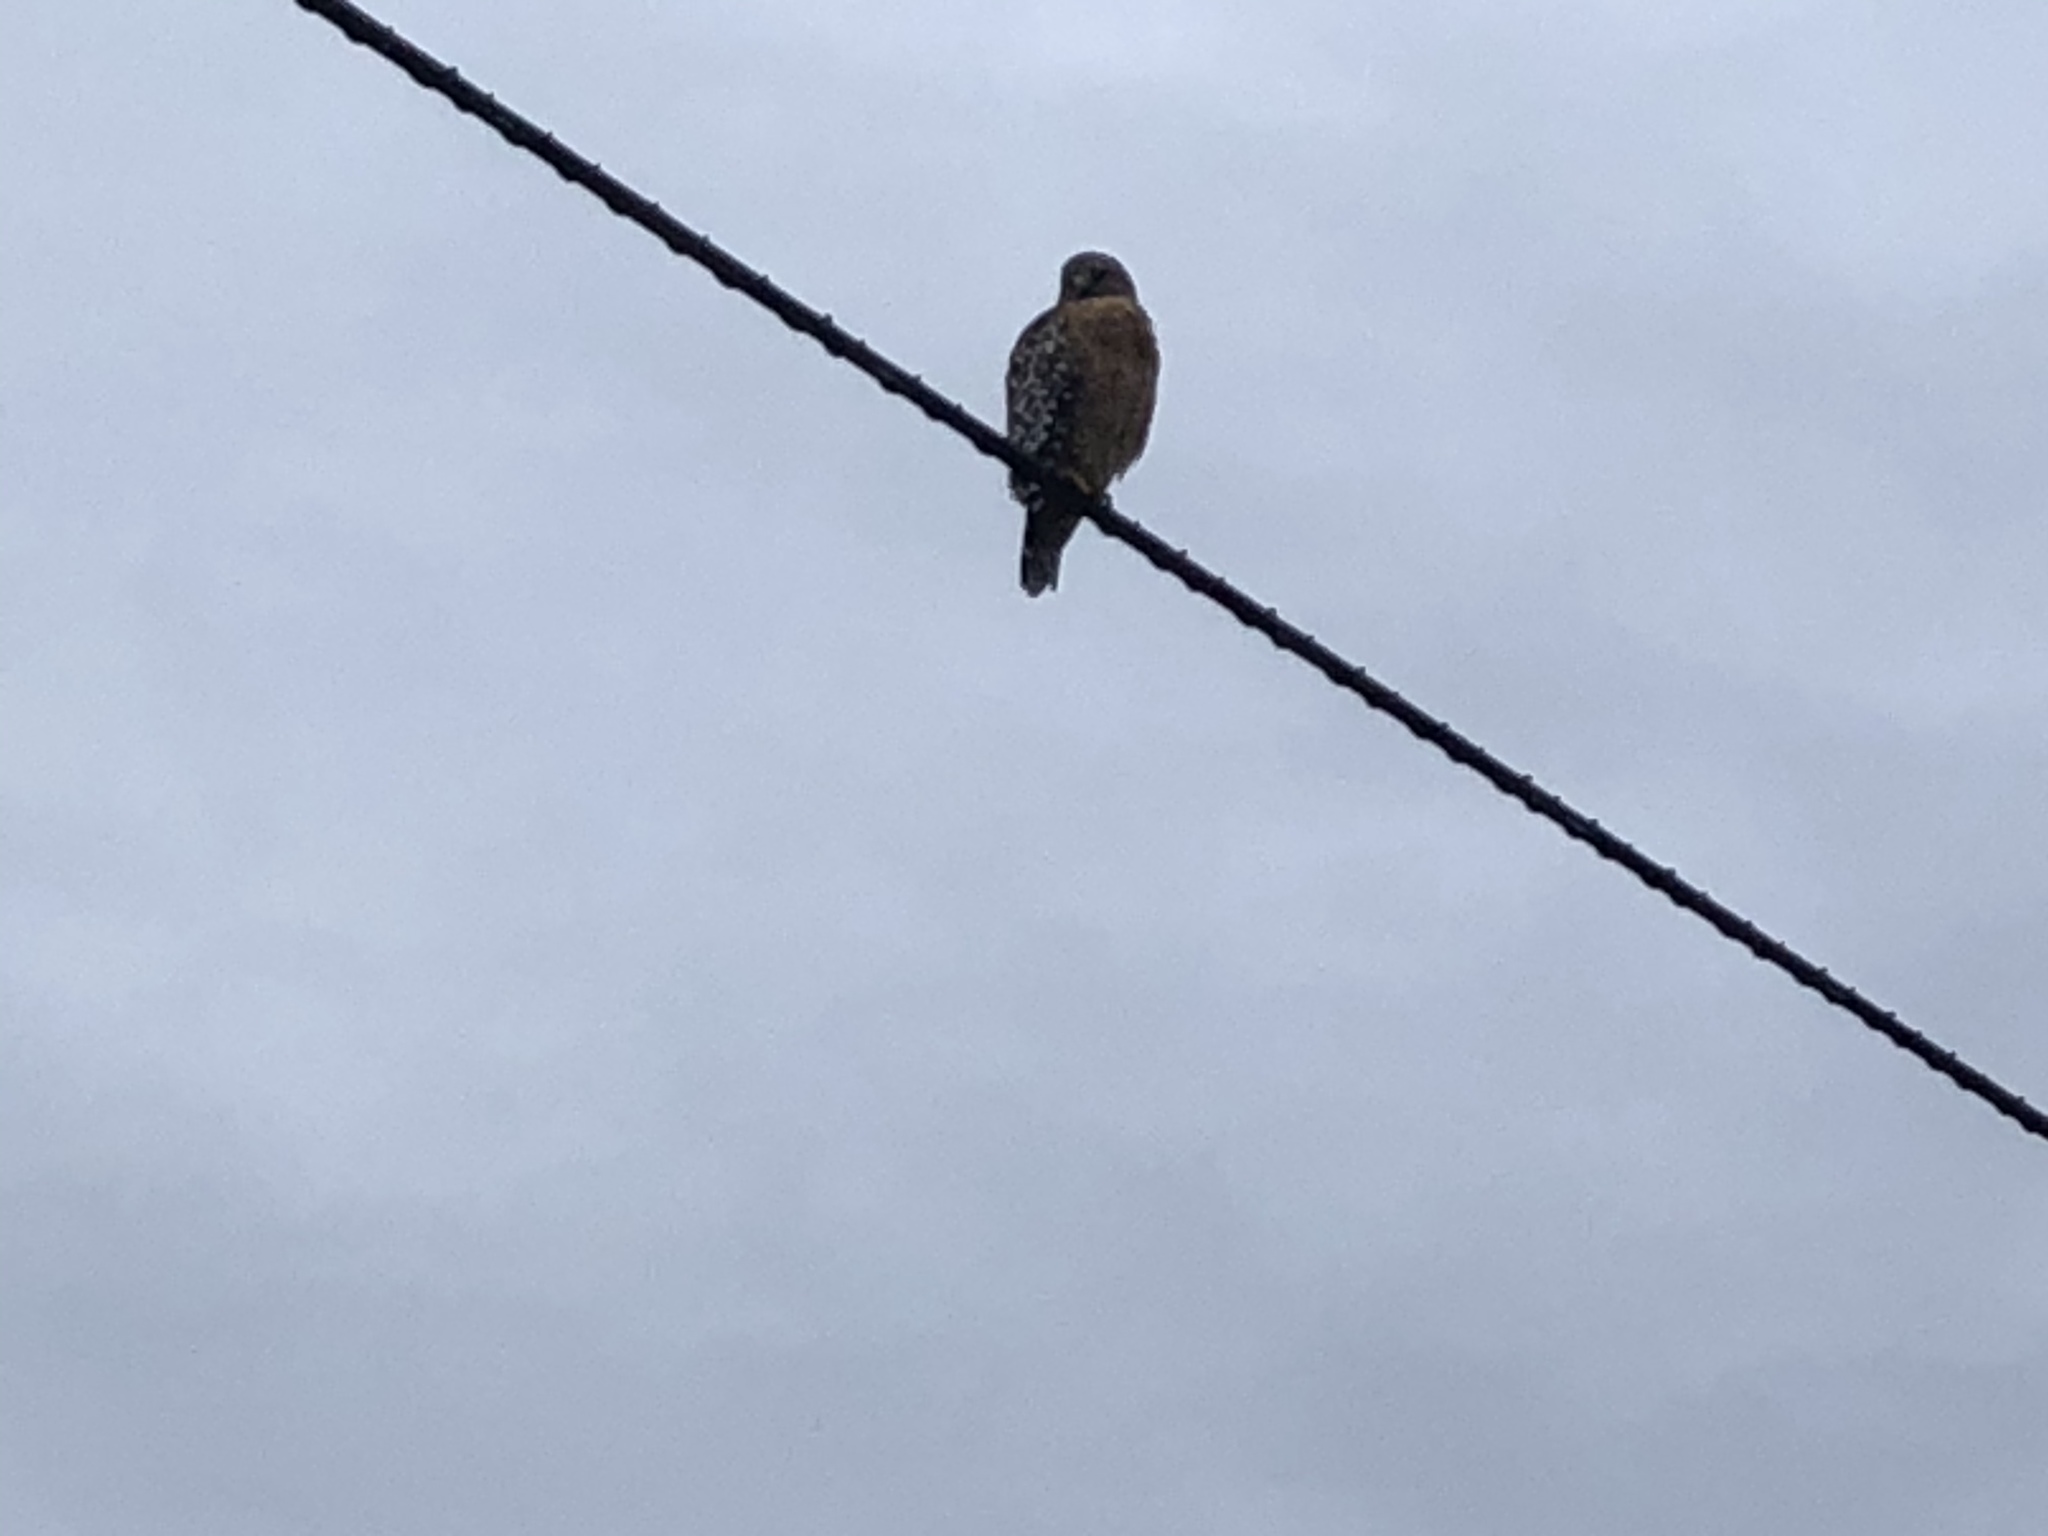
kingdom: Animalia
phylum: Chordata
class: Aves
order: Accipitriformes
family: Accipitridae
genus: Buteo
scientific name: Buteo lineatus
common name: Red-shouldered hawk
